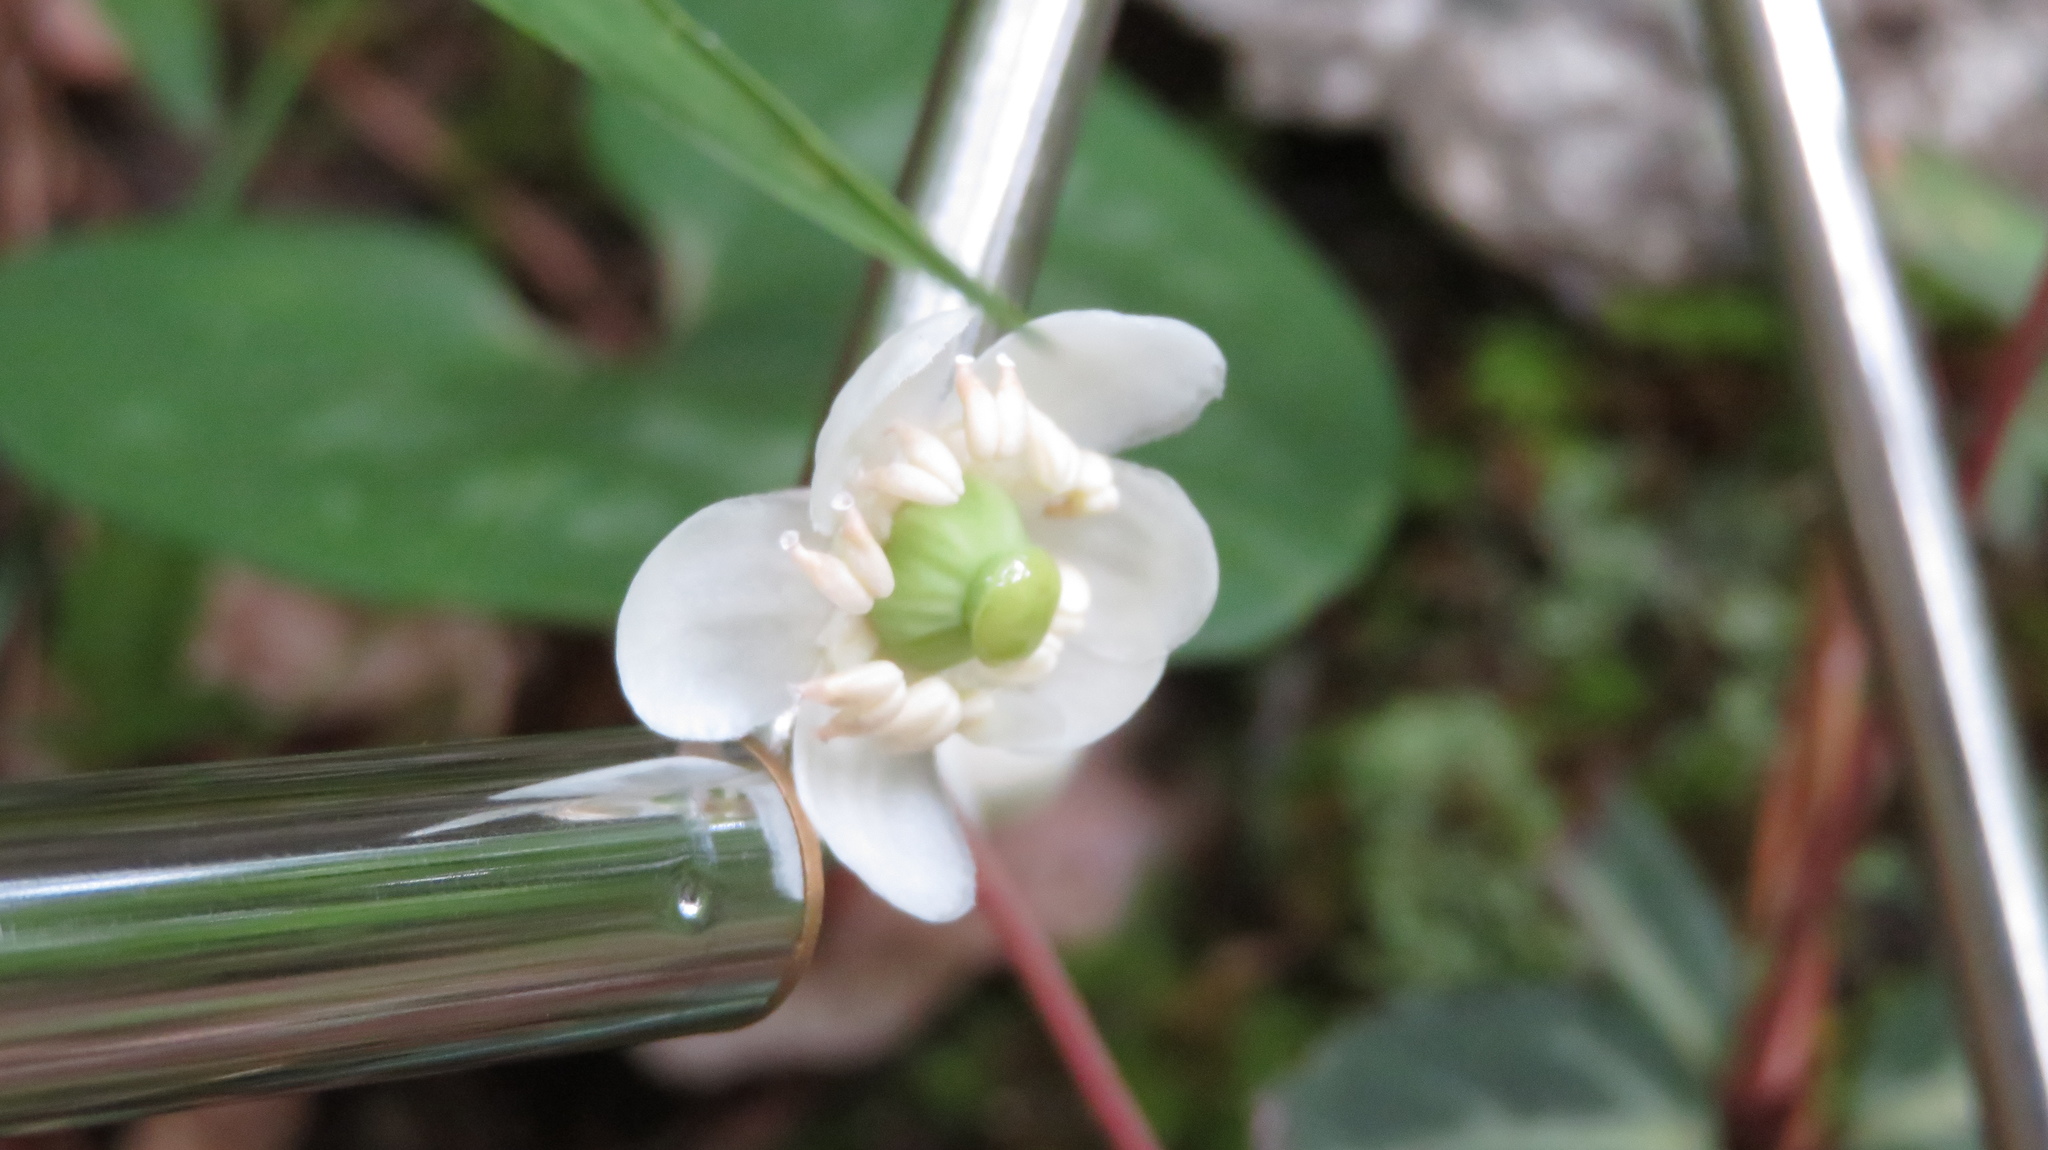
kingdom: Plantae
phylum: Tracheophyta
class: Magnoliopsida
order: Ericales
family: Ericaceae
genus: Chimaphila
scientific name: Chimaphila maculata
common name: Spotted pipsissewa
